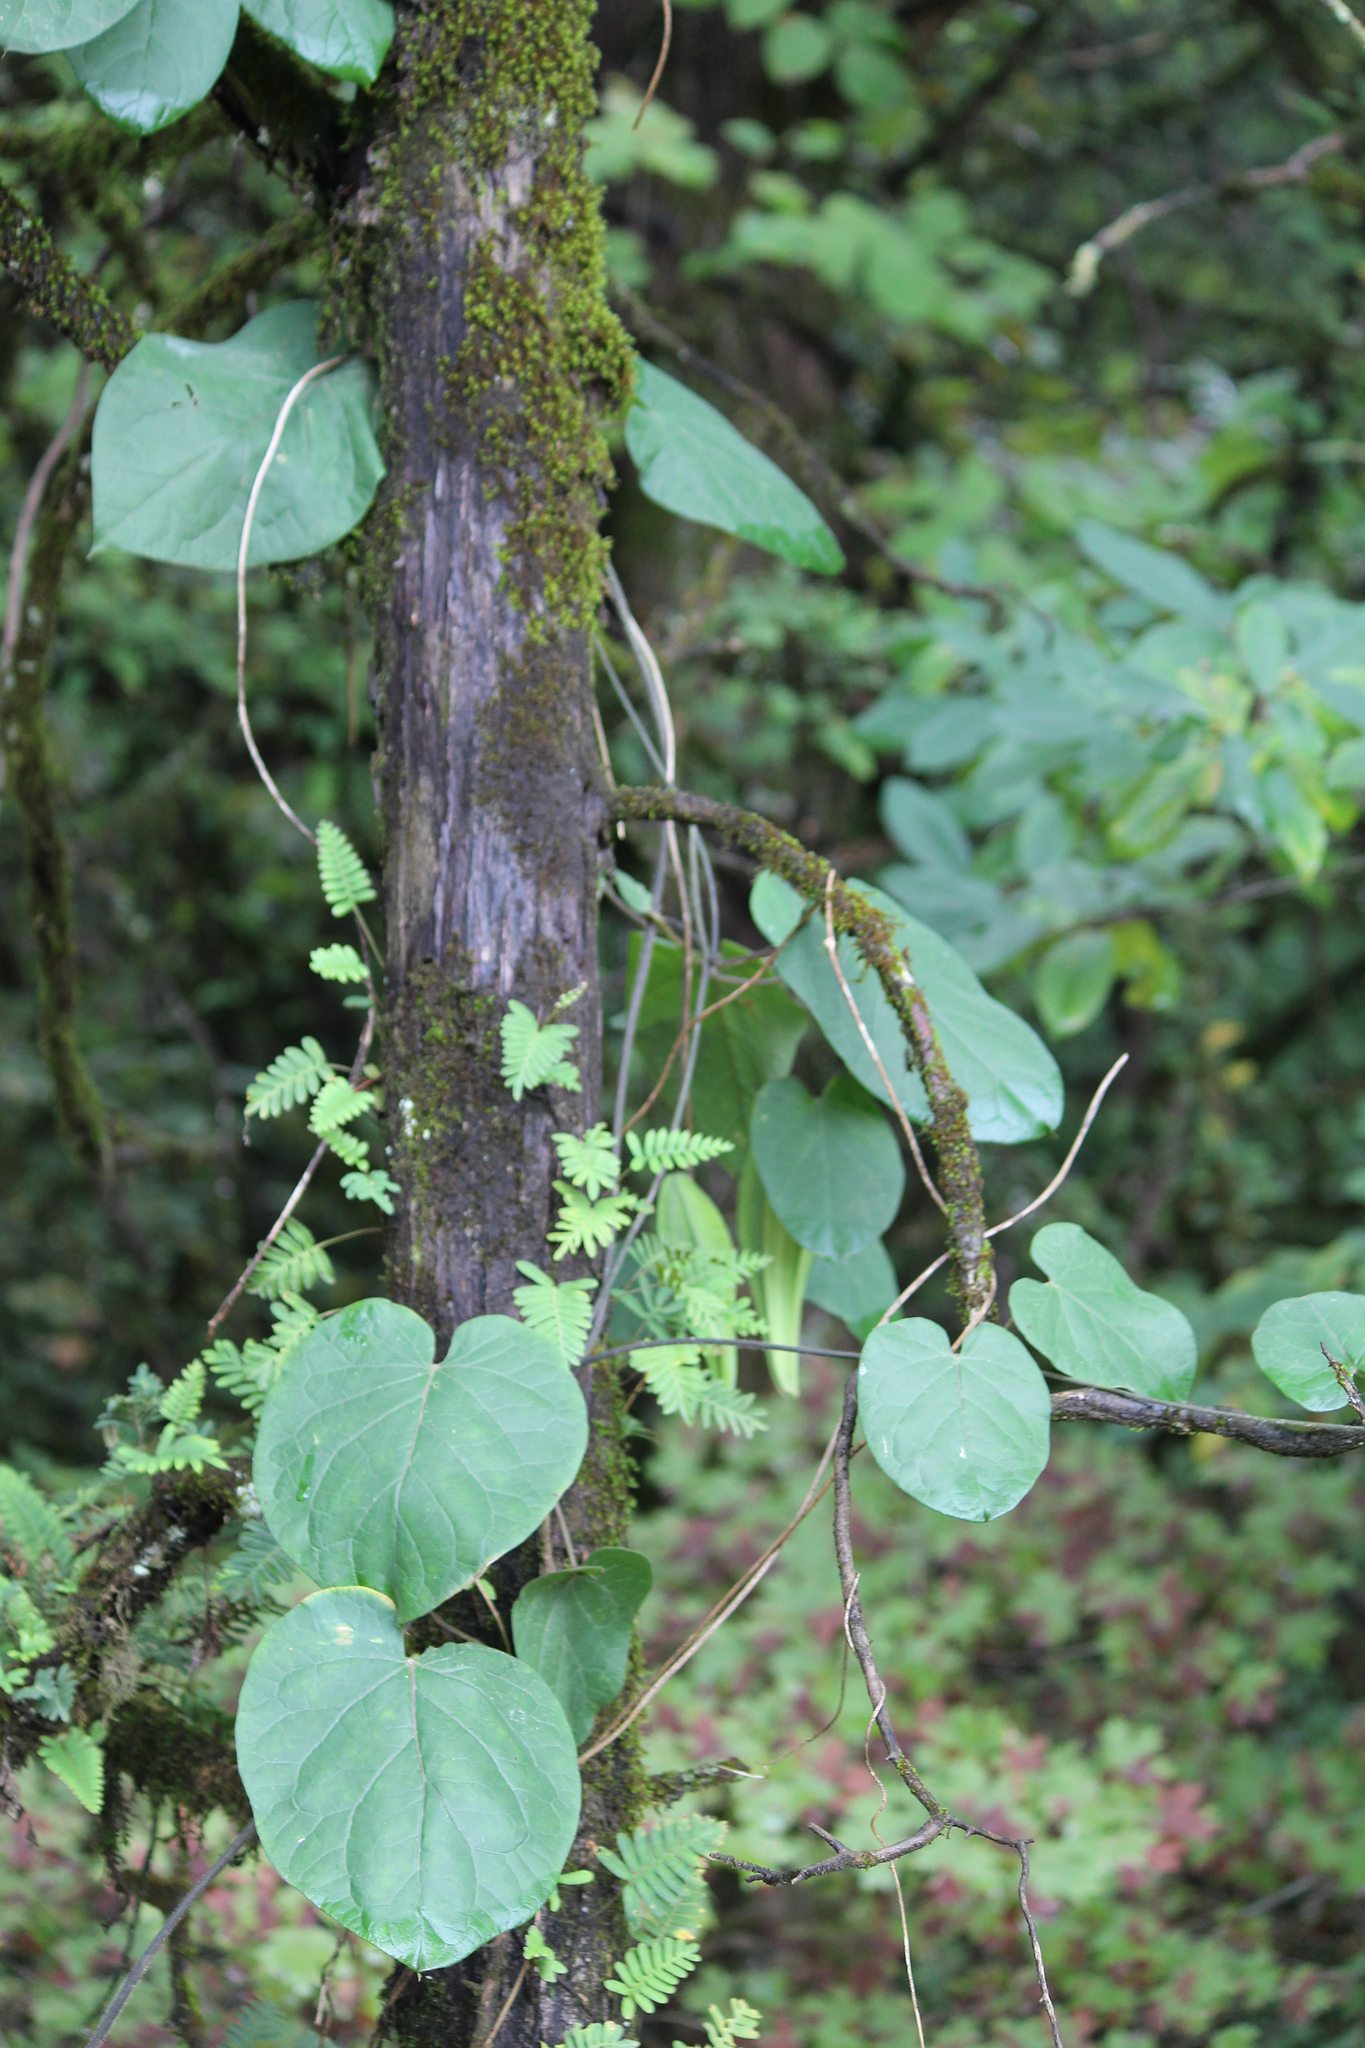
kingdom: Plantae
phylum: Tracheophyta
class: Magnoliopsida
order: Gentianales
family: Apocynaceae
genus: Gonolobus
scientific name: Gonolobus suberosus
